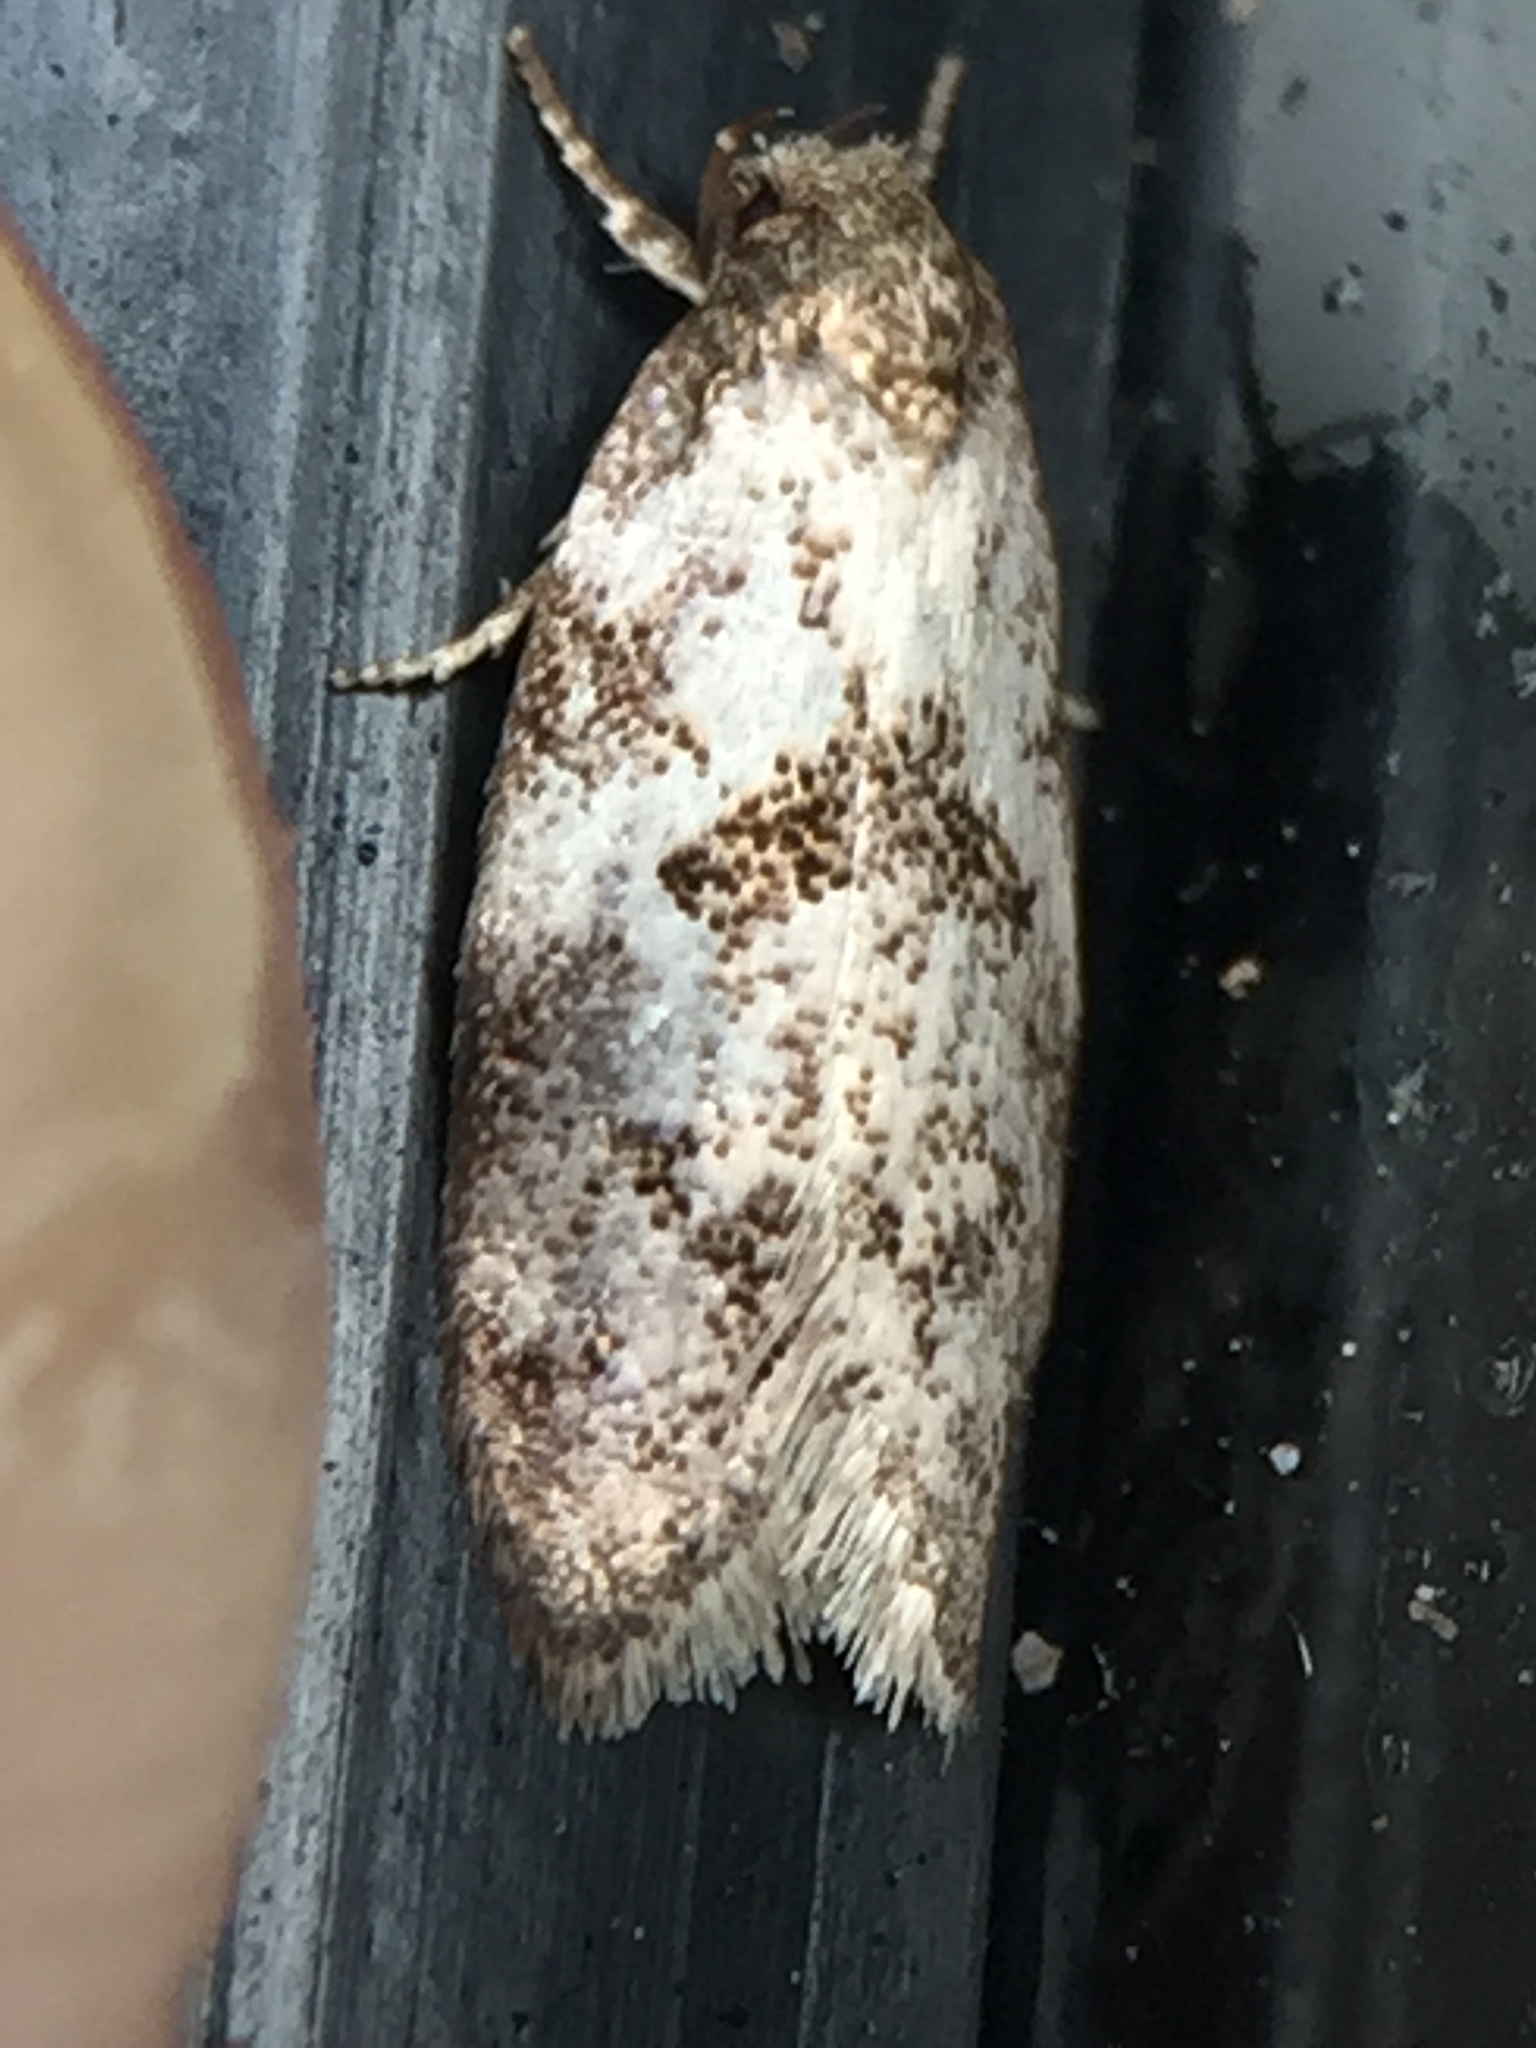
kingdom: Animalia
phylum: Arthropoda
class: Insecta
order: Lepidoptera
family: Oecophoridae
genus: Tingena
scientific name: Tingena clarkei
